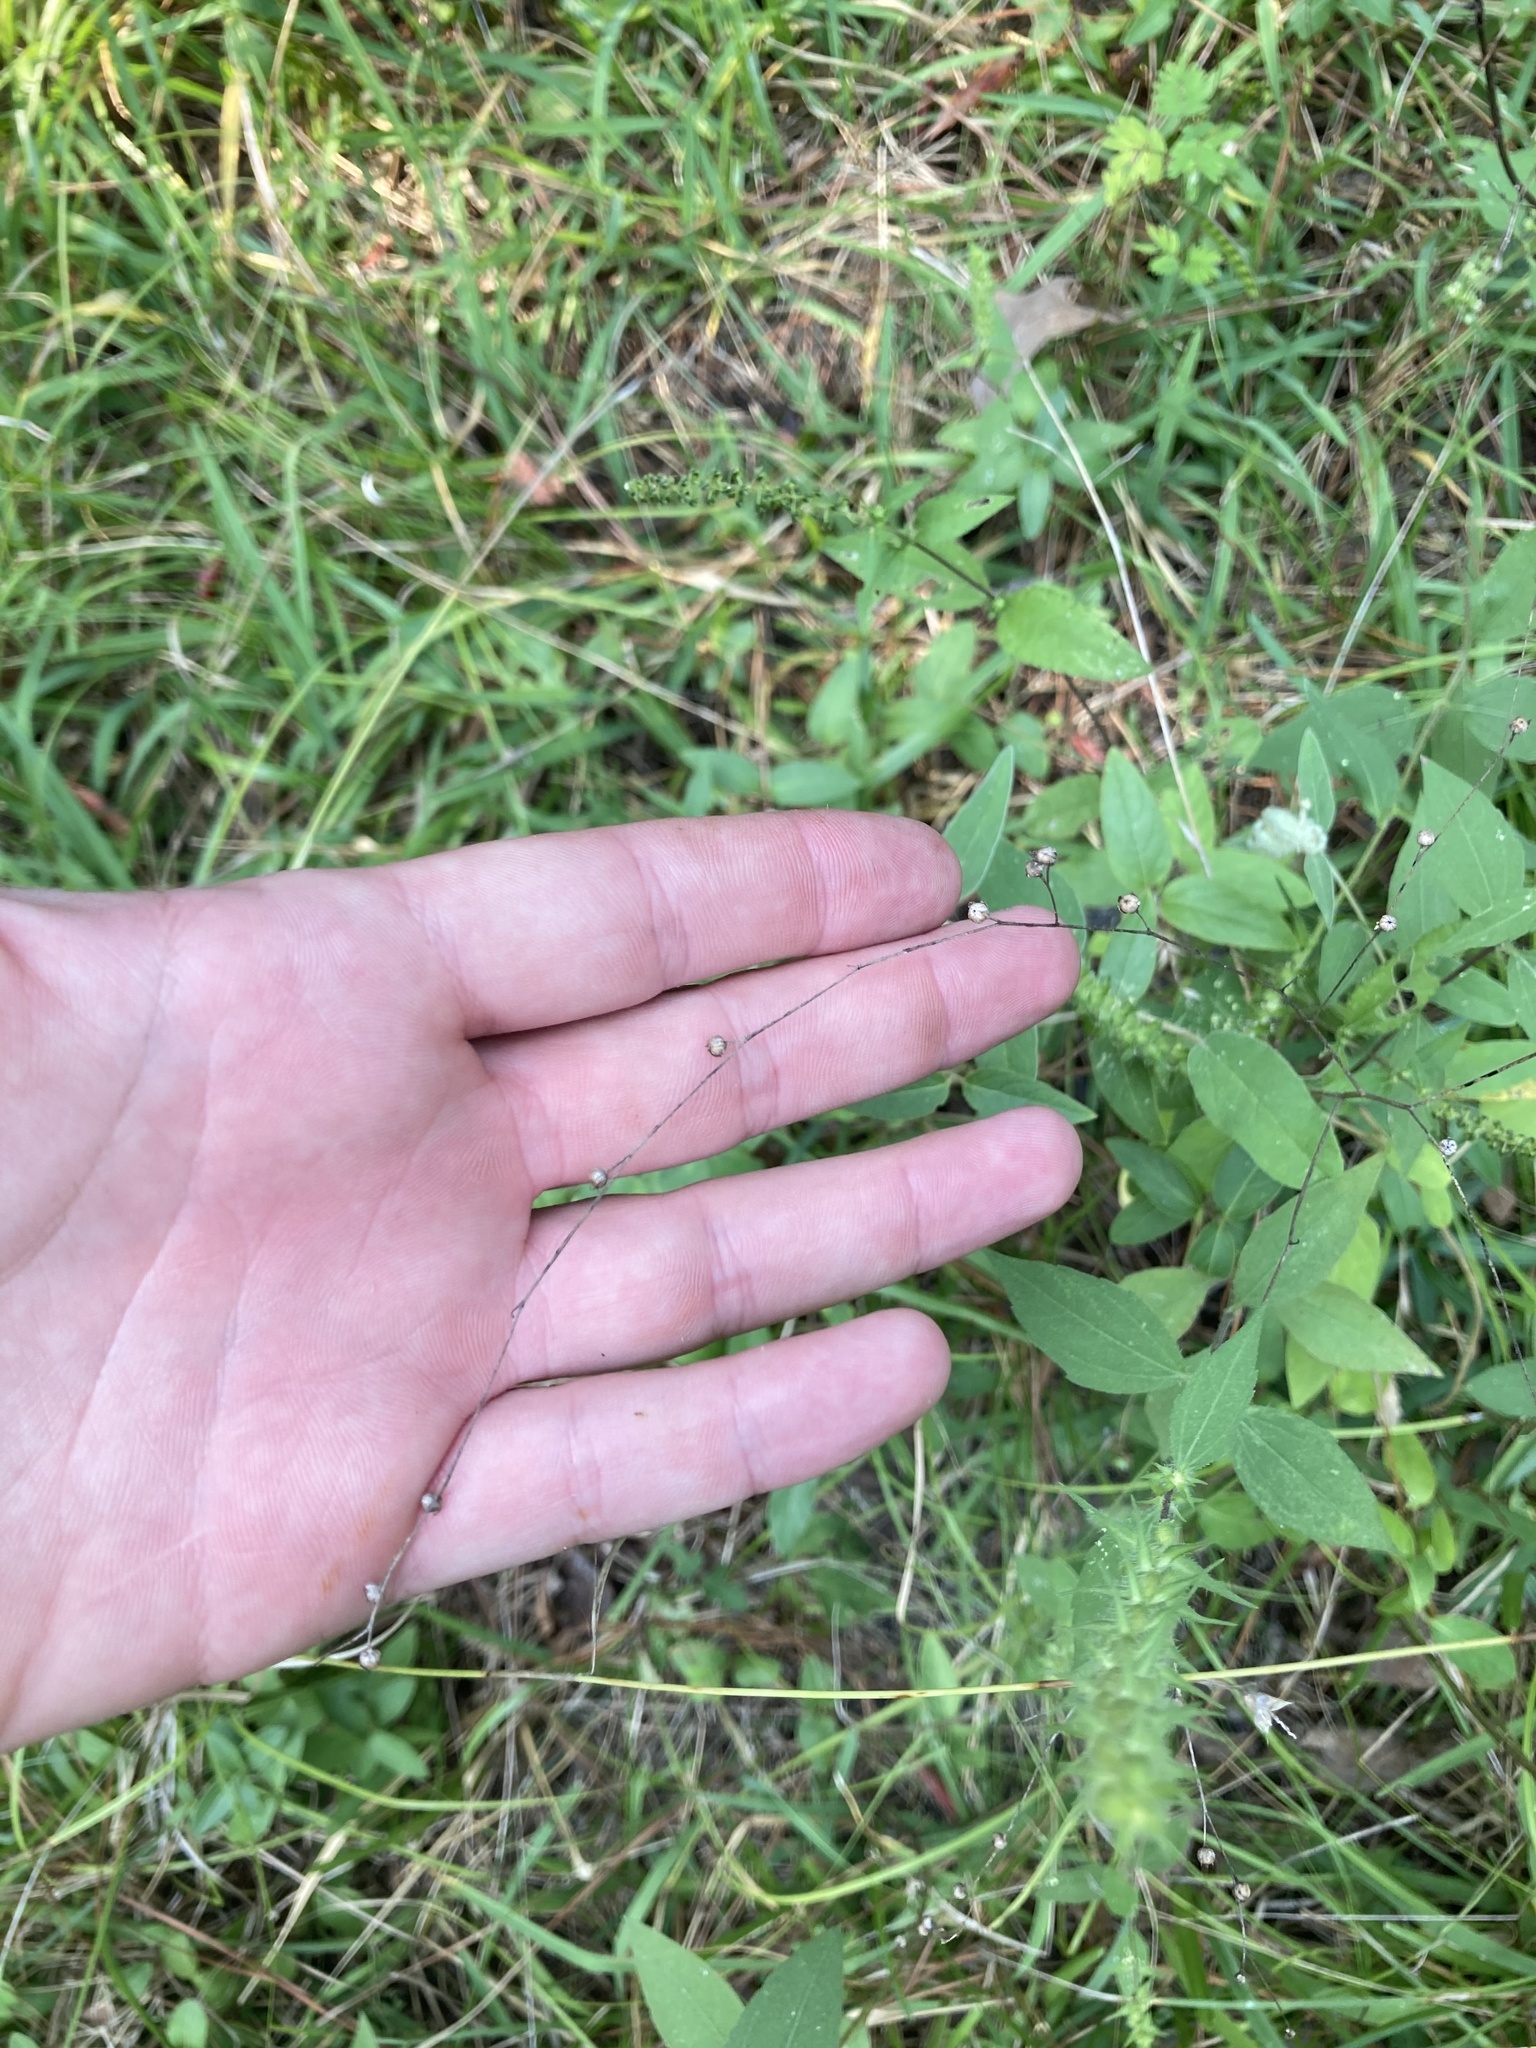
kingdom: Plantae
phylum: Tracheophyta
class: Magnoliopsida
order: Malpighiales
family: Linaceae
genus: Linum
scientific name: Linum medium
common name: Stiff yellow flax
